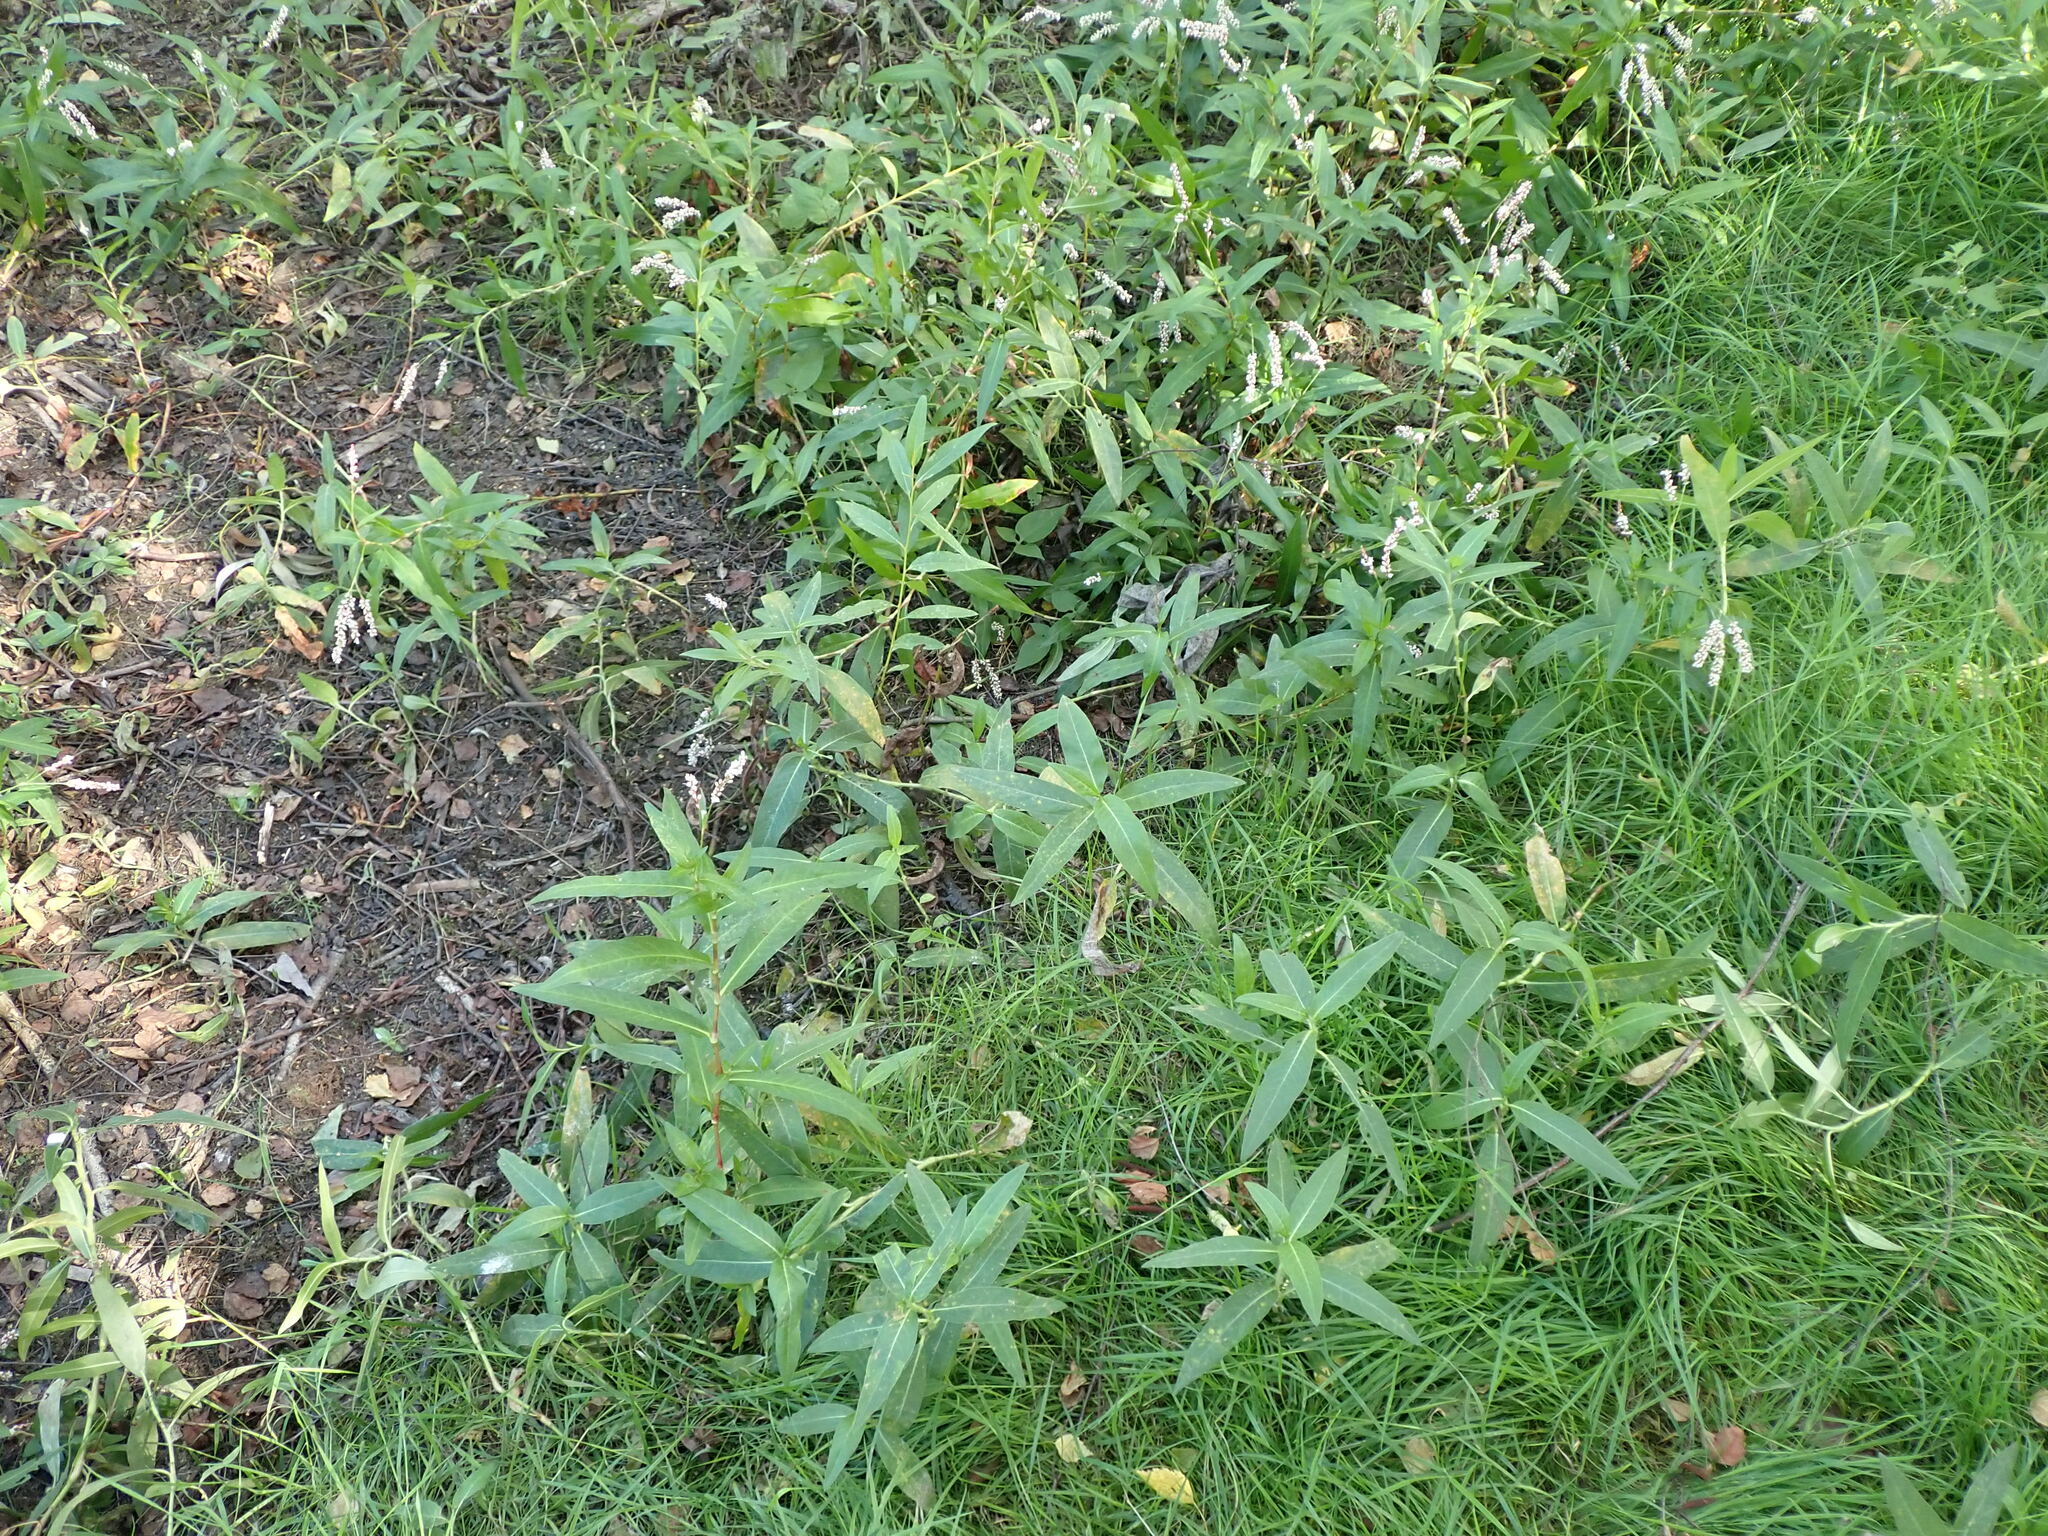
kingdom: Plantae
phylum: Tracheophyta
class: Magnoliopsida
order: Caryophyllales
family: Polygonaceae
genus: Persicaria
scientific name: Persicaria hydropiperoides
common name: Swamp smartweed
